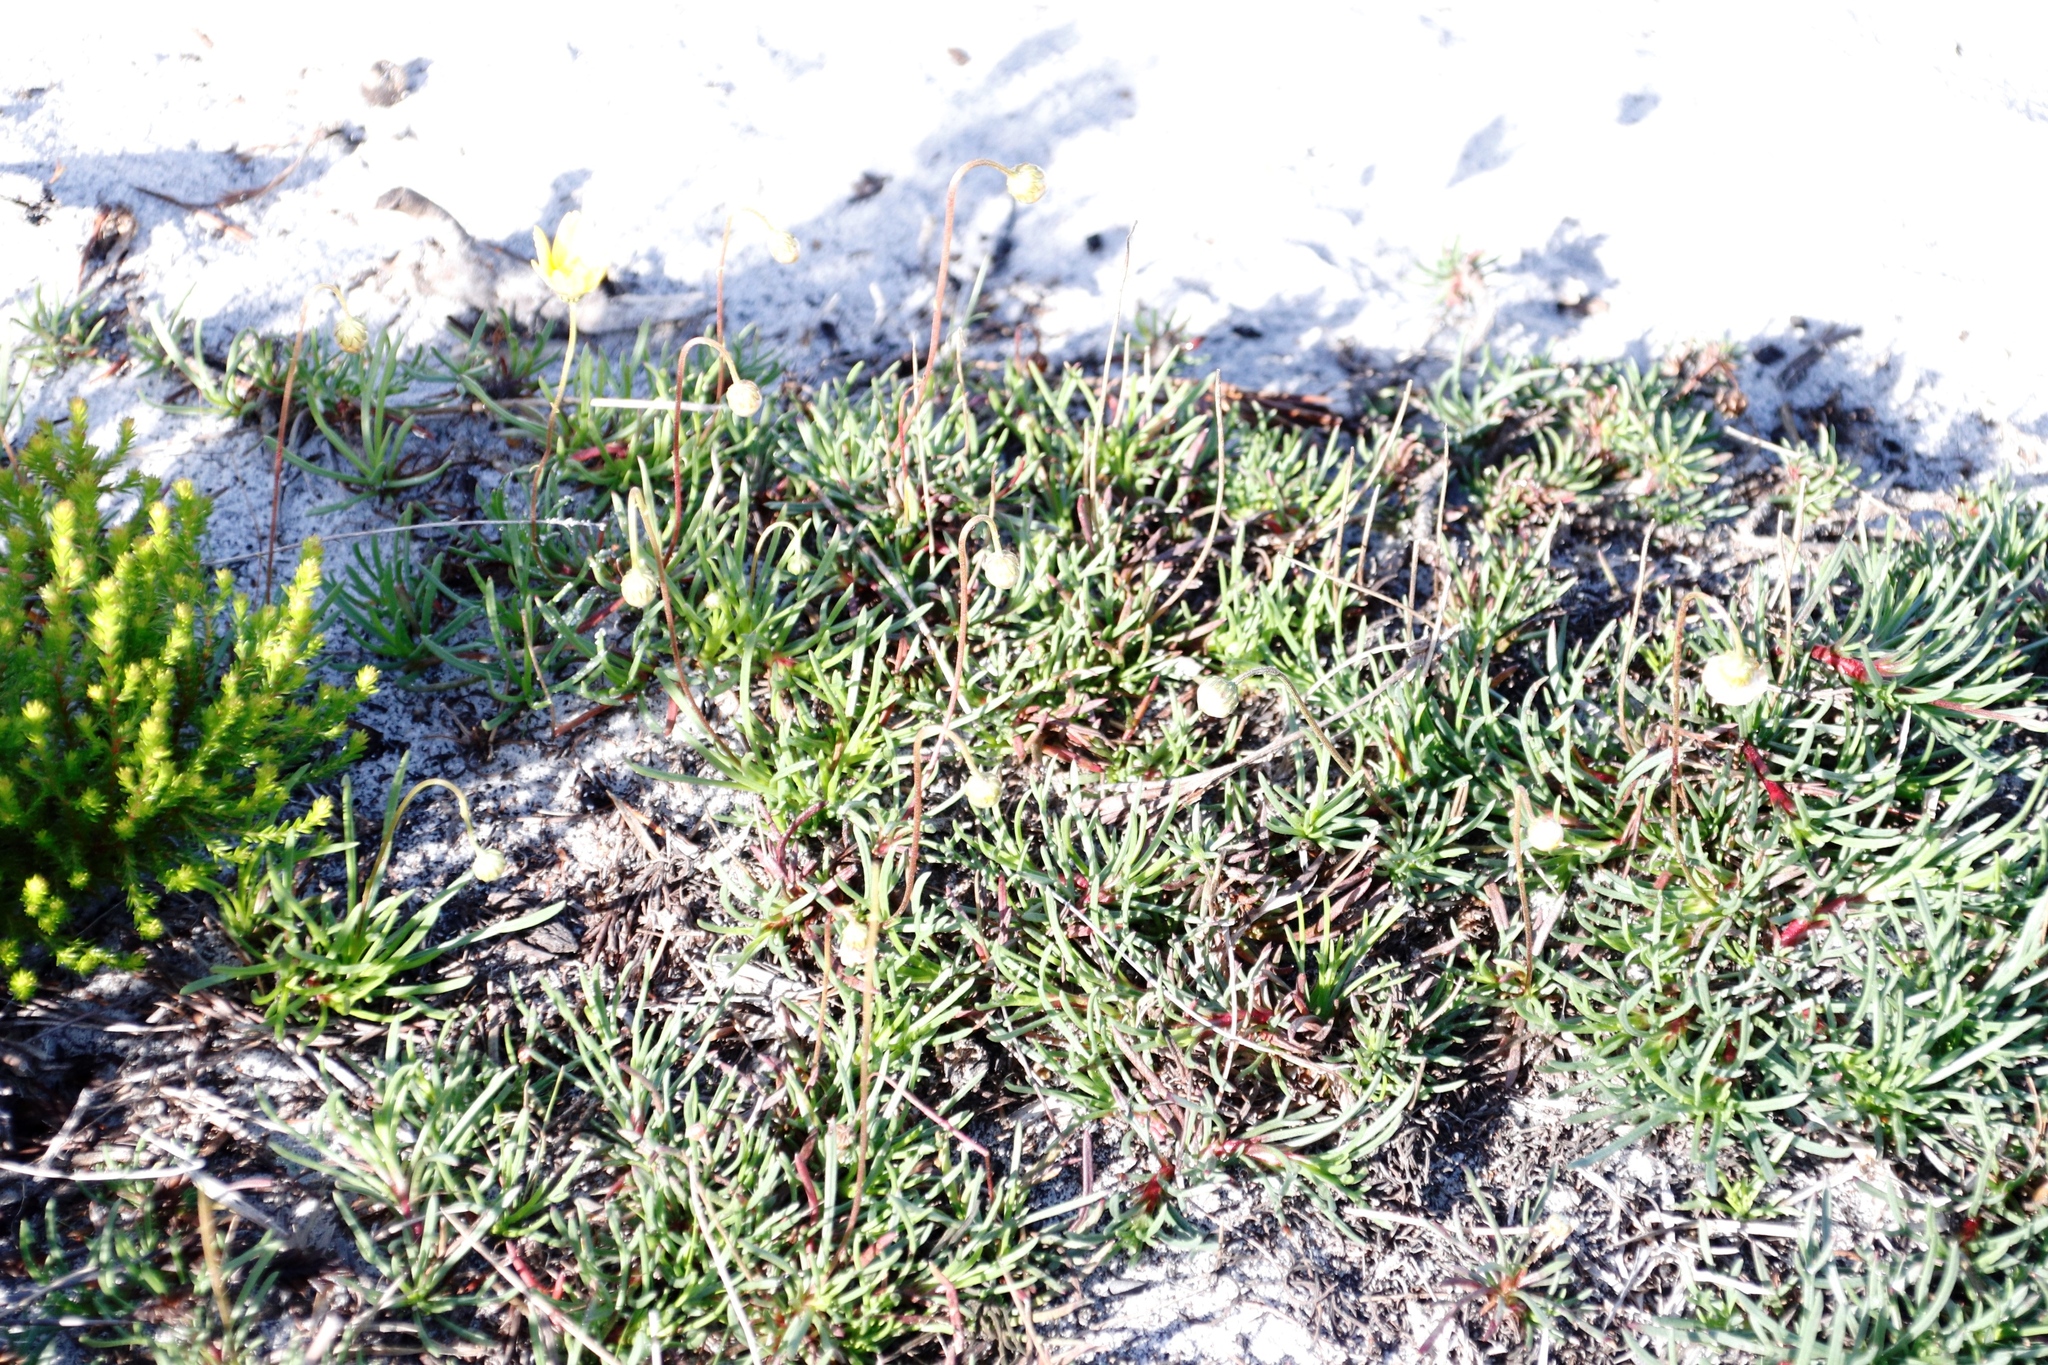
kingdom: Plantae
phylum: Tracheophyta
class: Magnoliopsida
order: Asterales
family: Asteraceae
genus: Ursinia
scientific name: Ursinia tenuifolia
